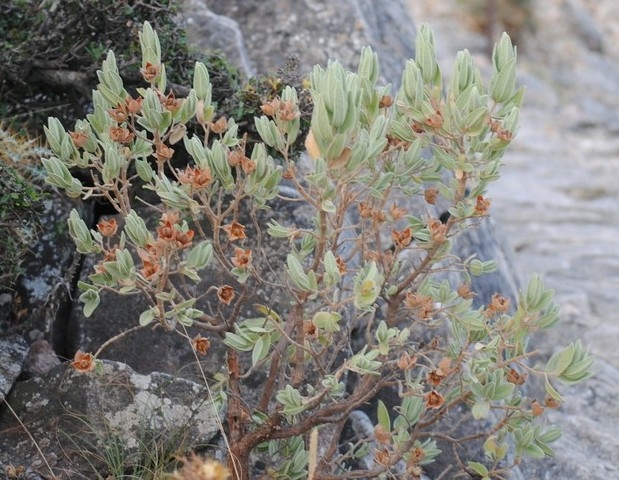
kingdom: Plantae
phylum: Tracheophyta
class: Magnoliopsida
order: Malvales
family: Cistaceae
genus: Cistus
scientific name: Cistus albidus
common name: White-leaf rock-rose
